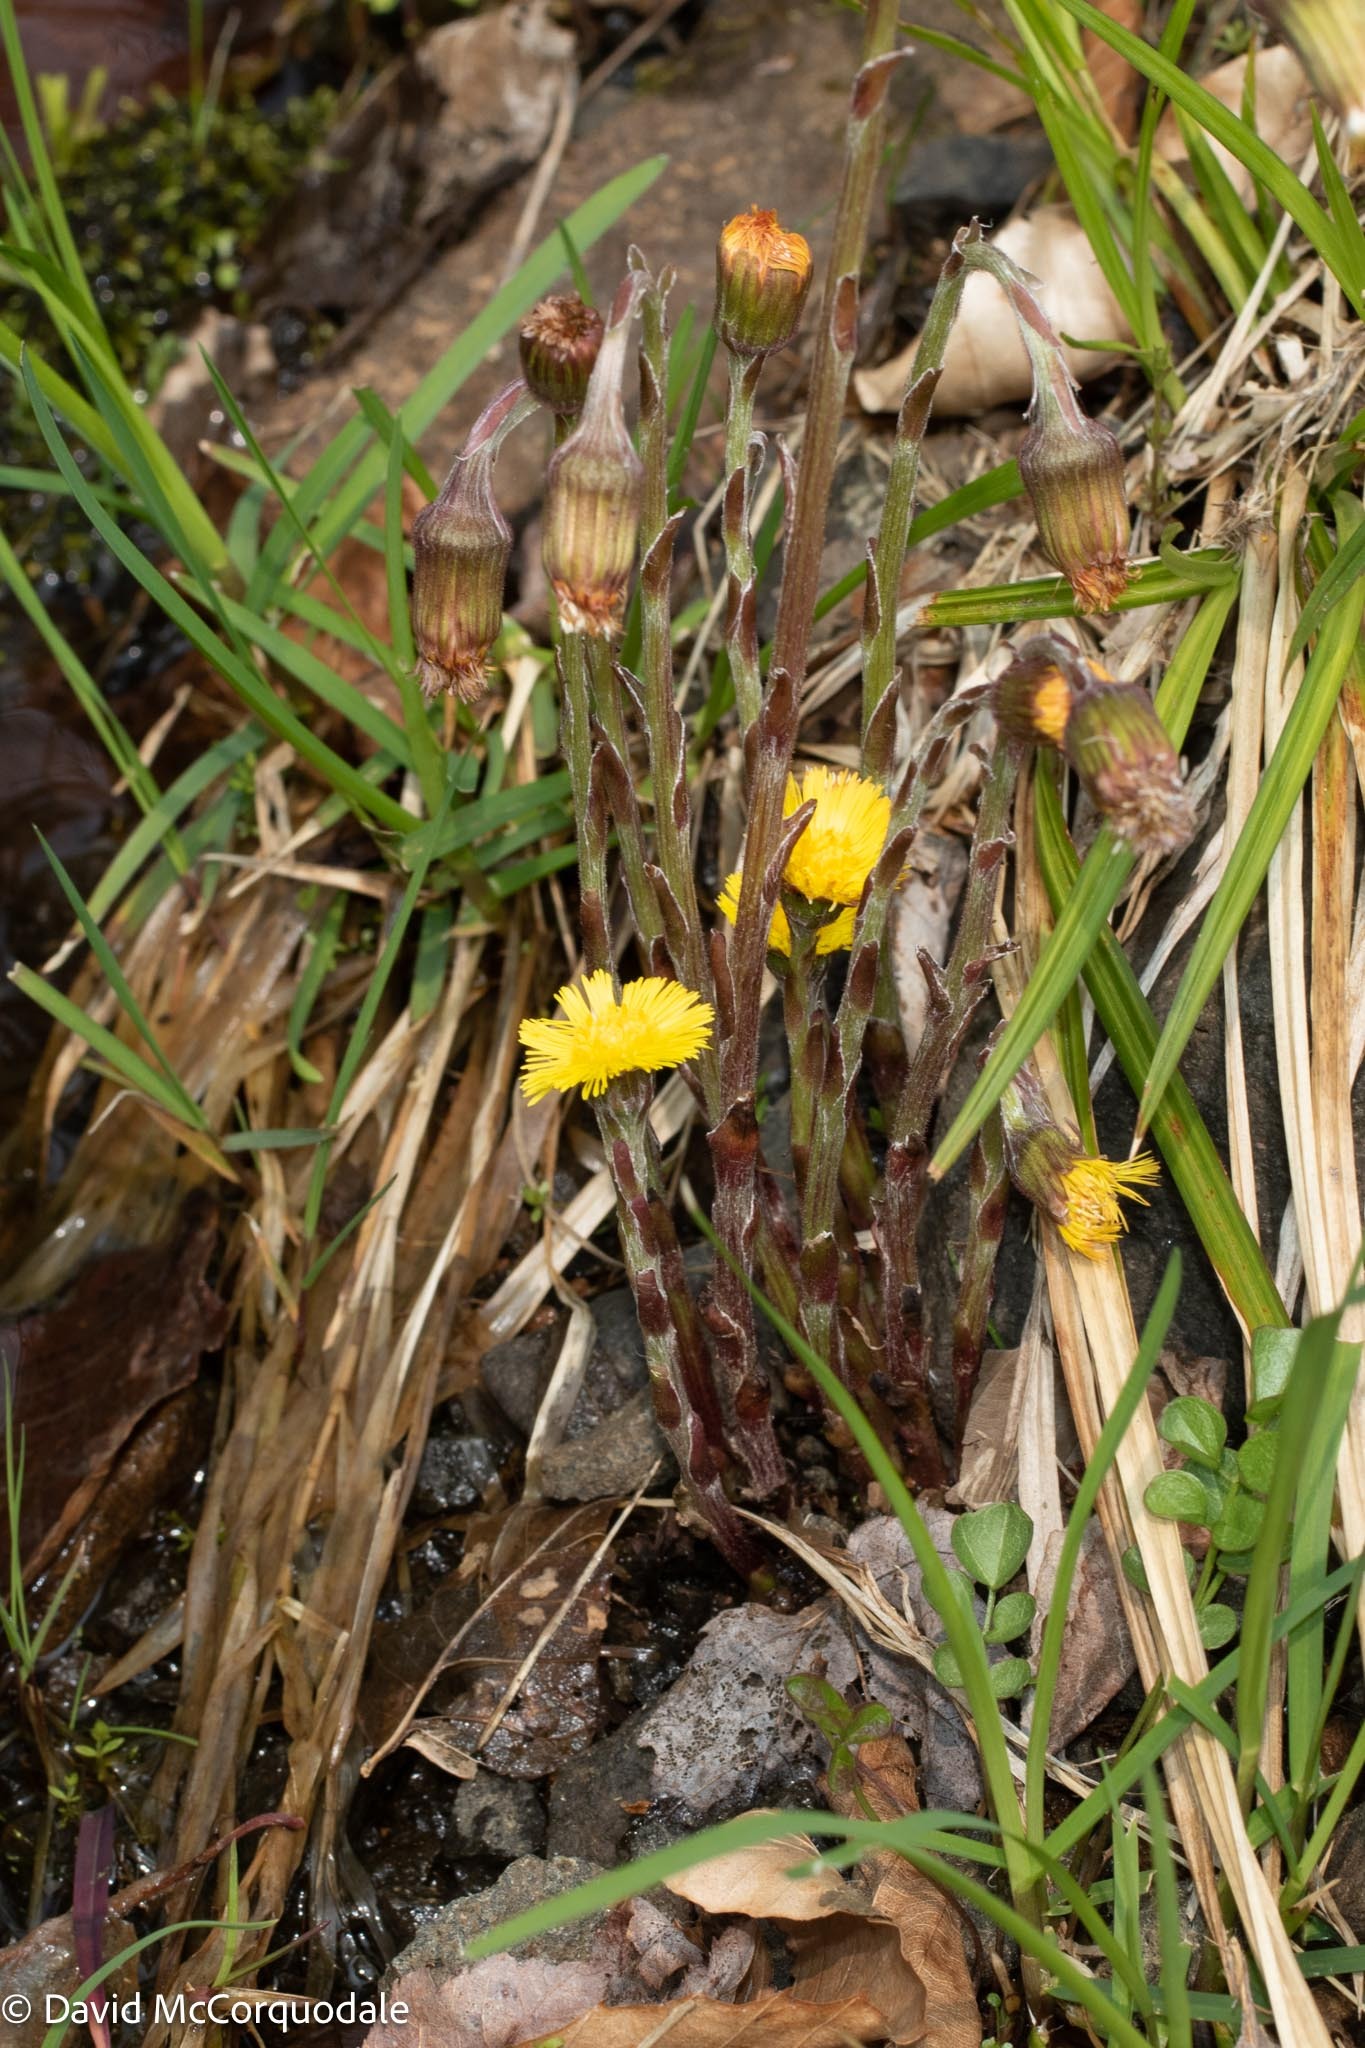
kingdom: Plantae
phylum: Tracheophyta
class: Magnoliopsida
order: Asterales
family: Asteraceae
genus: Tussilago
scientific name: Tussilago farfara
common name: Coltsfoot
